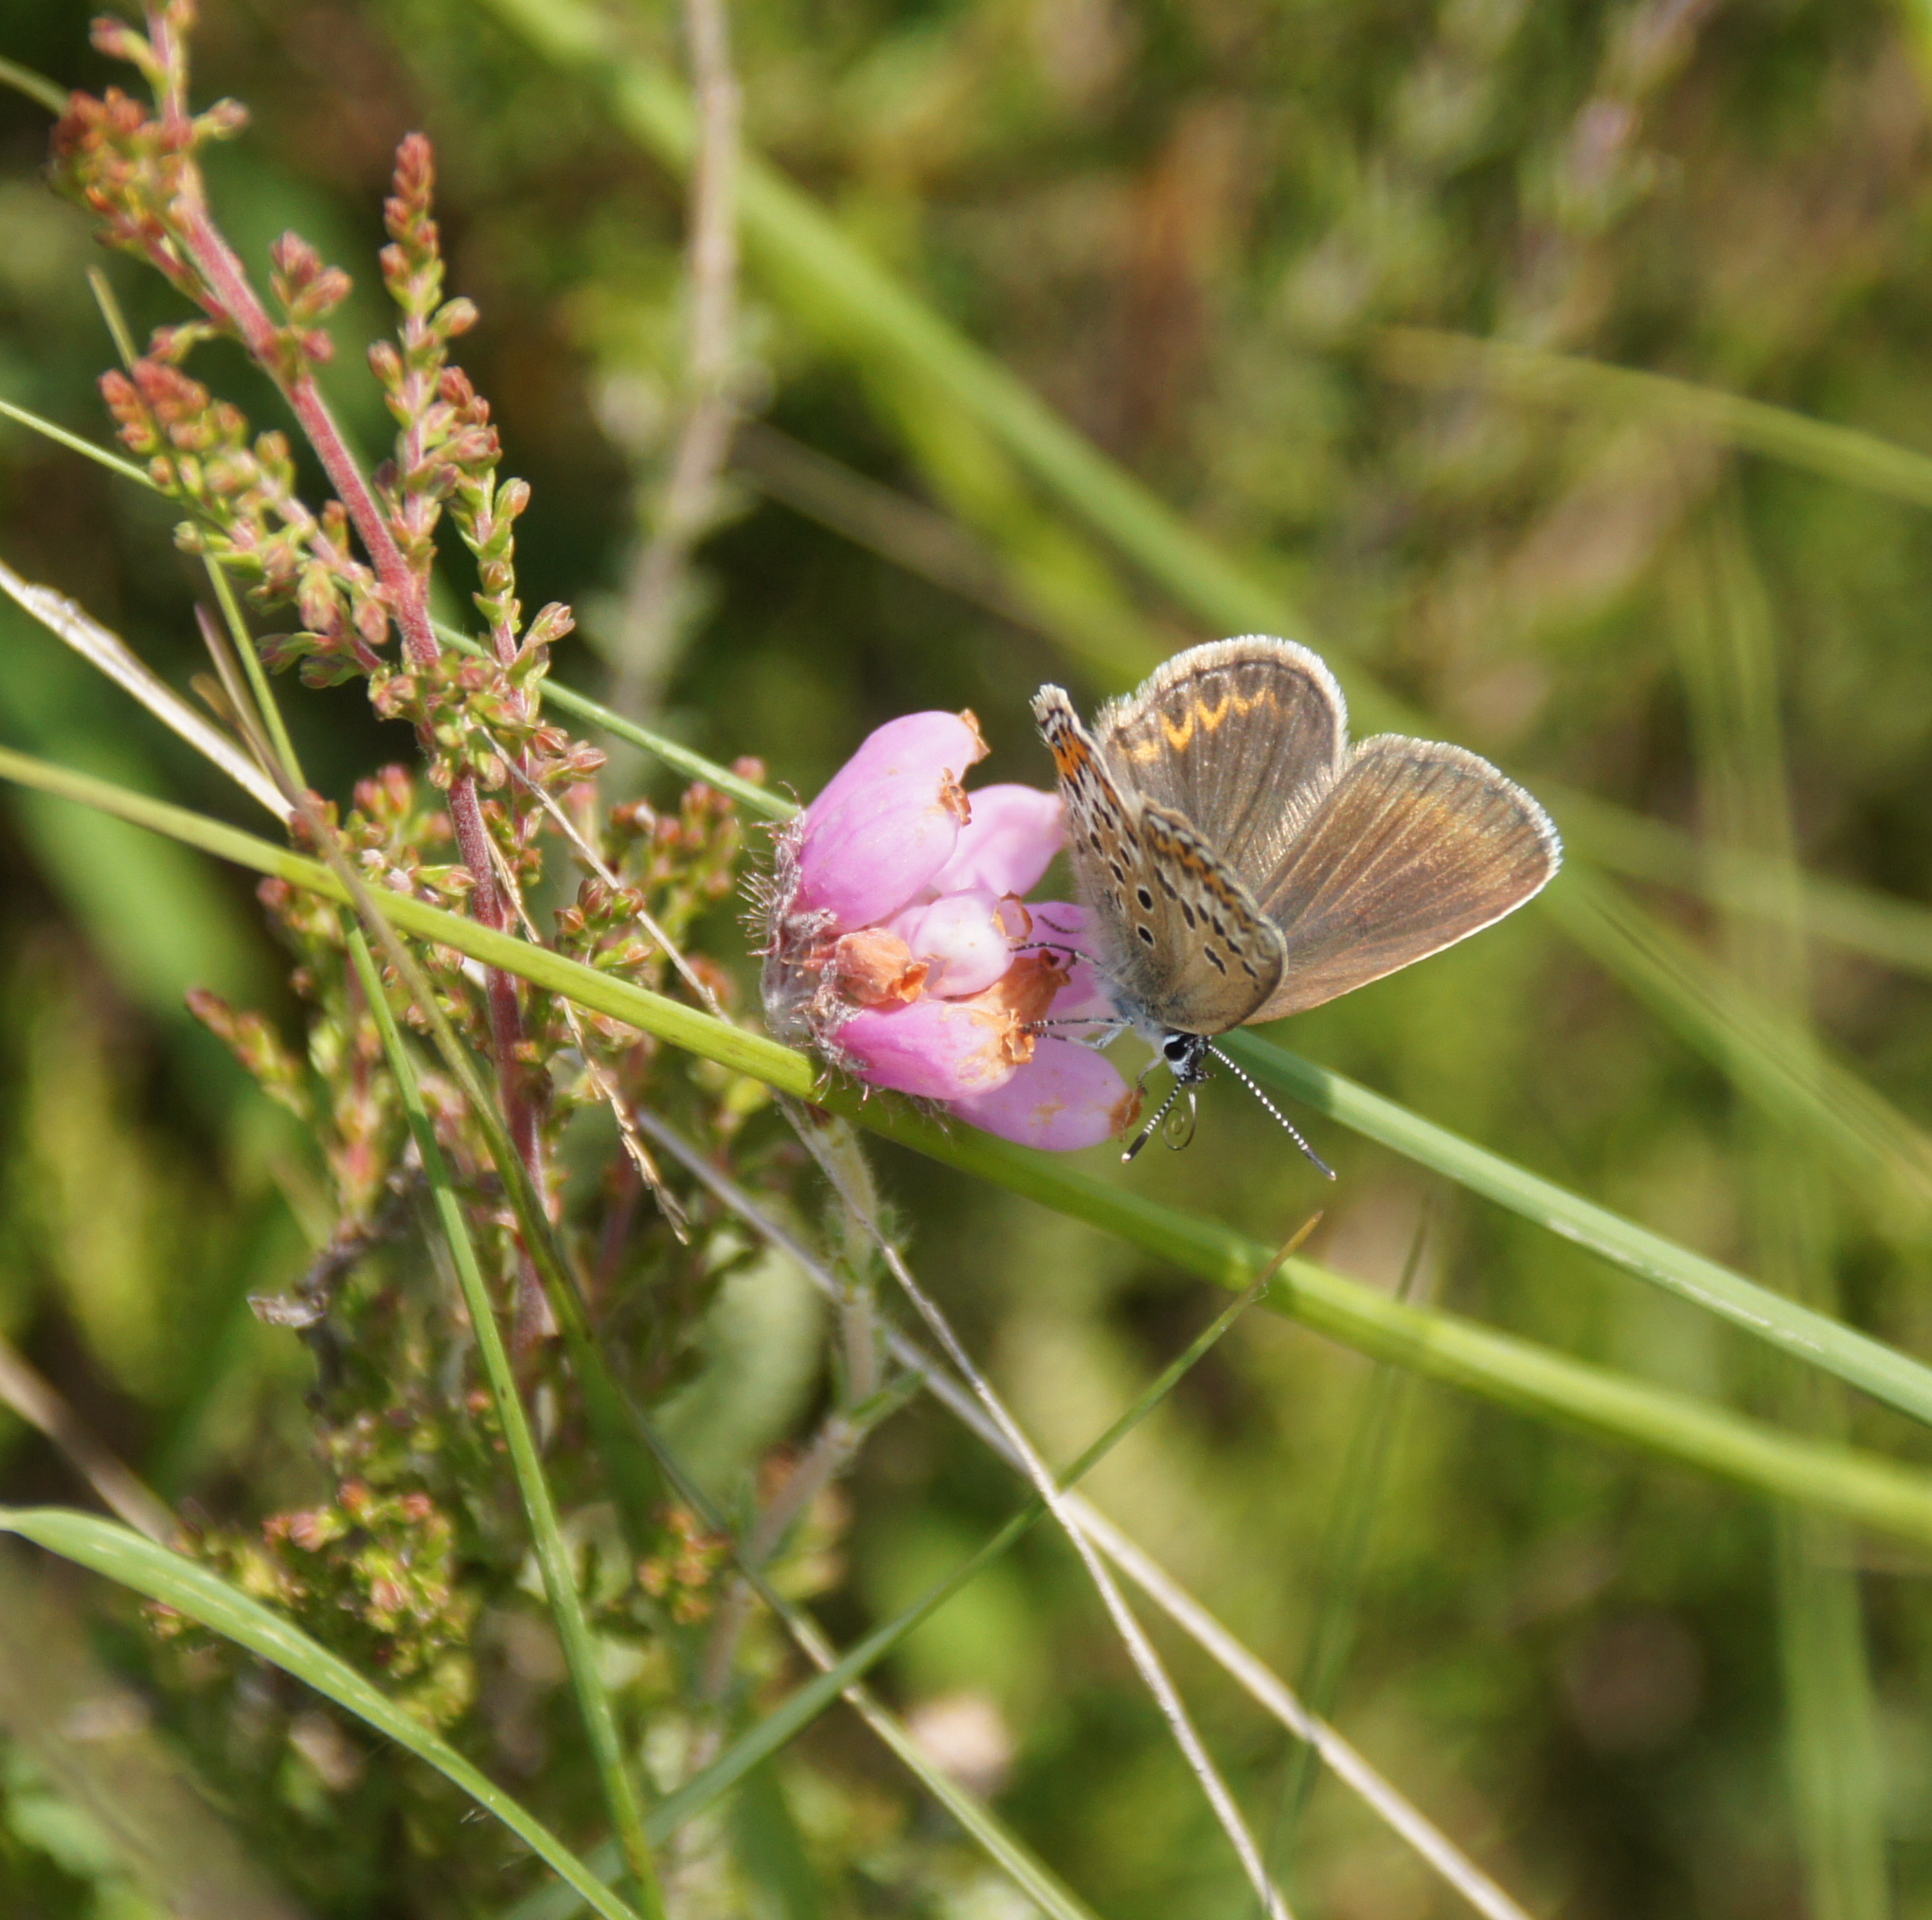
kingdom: Animalia
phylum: Arthropoda
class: Insecta
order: Lepidoptera
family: Lycaenidae
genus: Plebejus
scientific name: Plebejus argus
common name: Silver-studded blue
